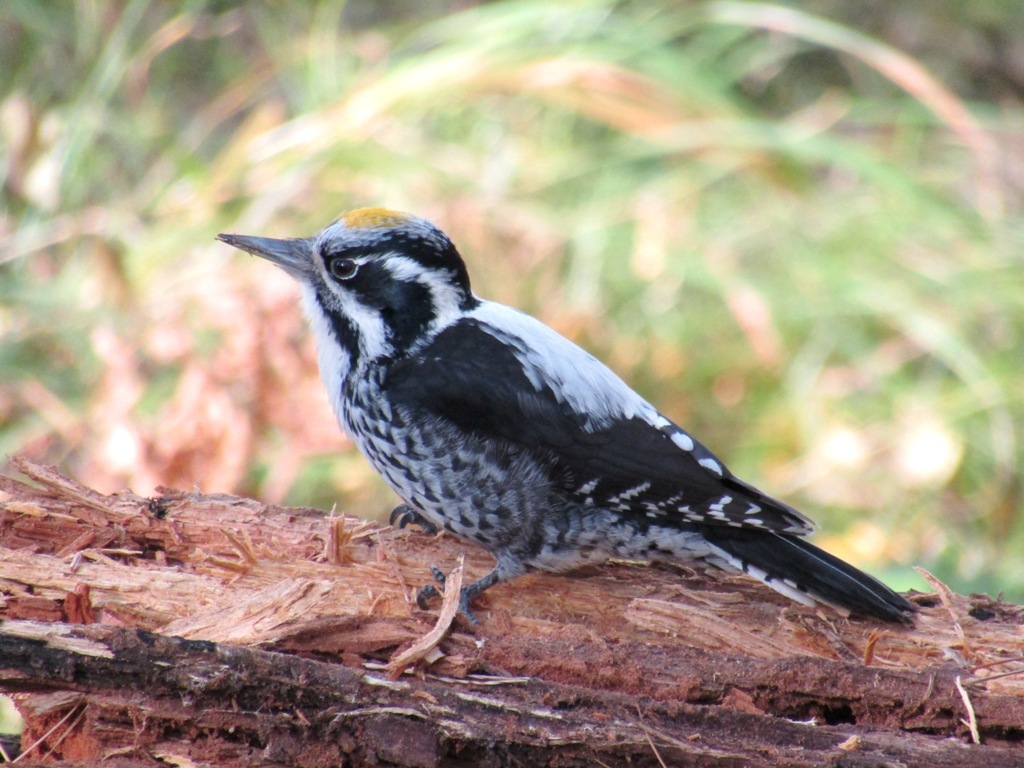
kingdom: Animalia
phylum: Chordata
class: Aves
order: Piciformes
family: Picidae
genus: Picoides
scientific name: Picoides tridactylus
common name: Eurasian three-toed woodpecker
